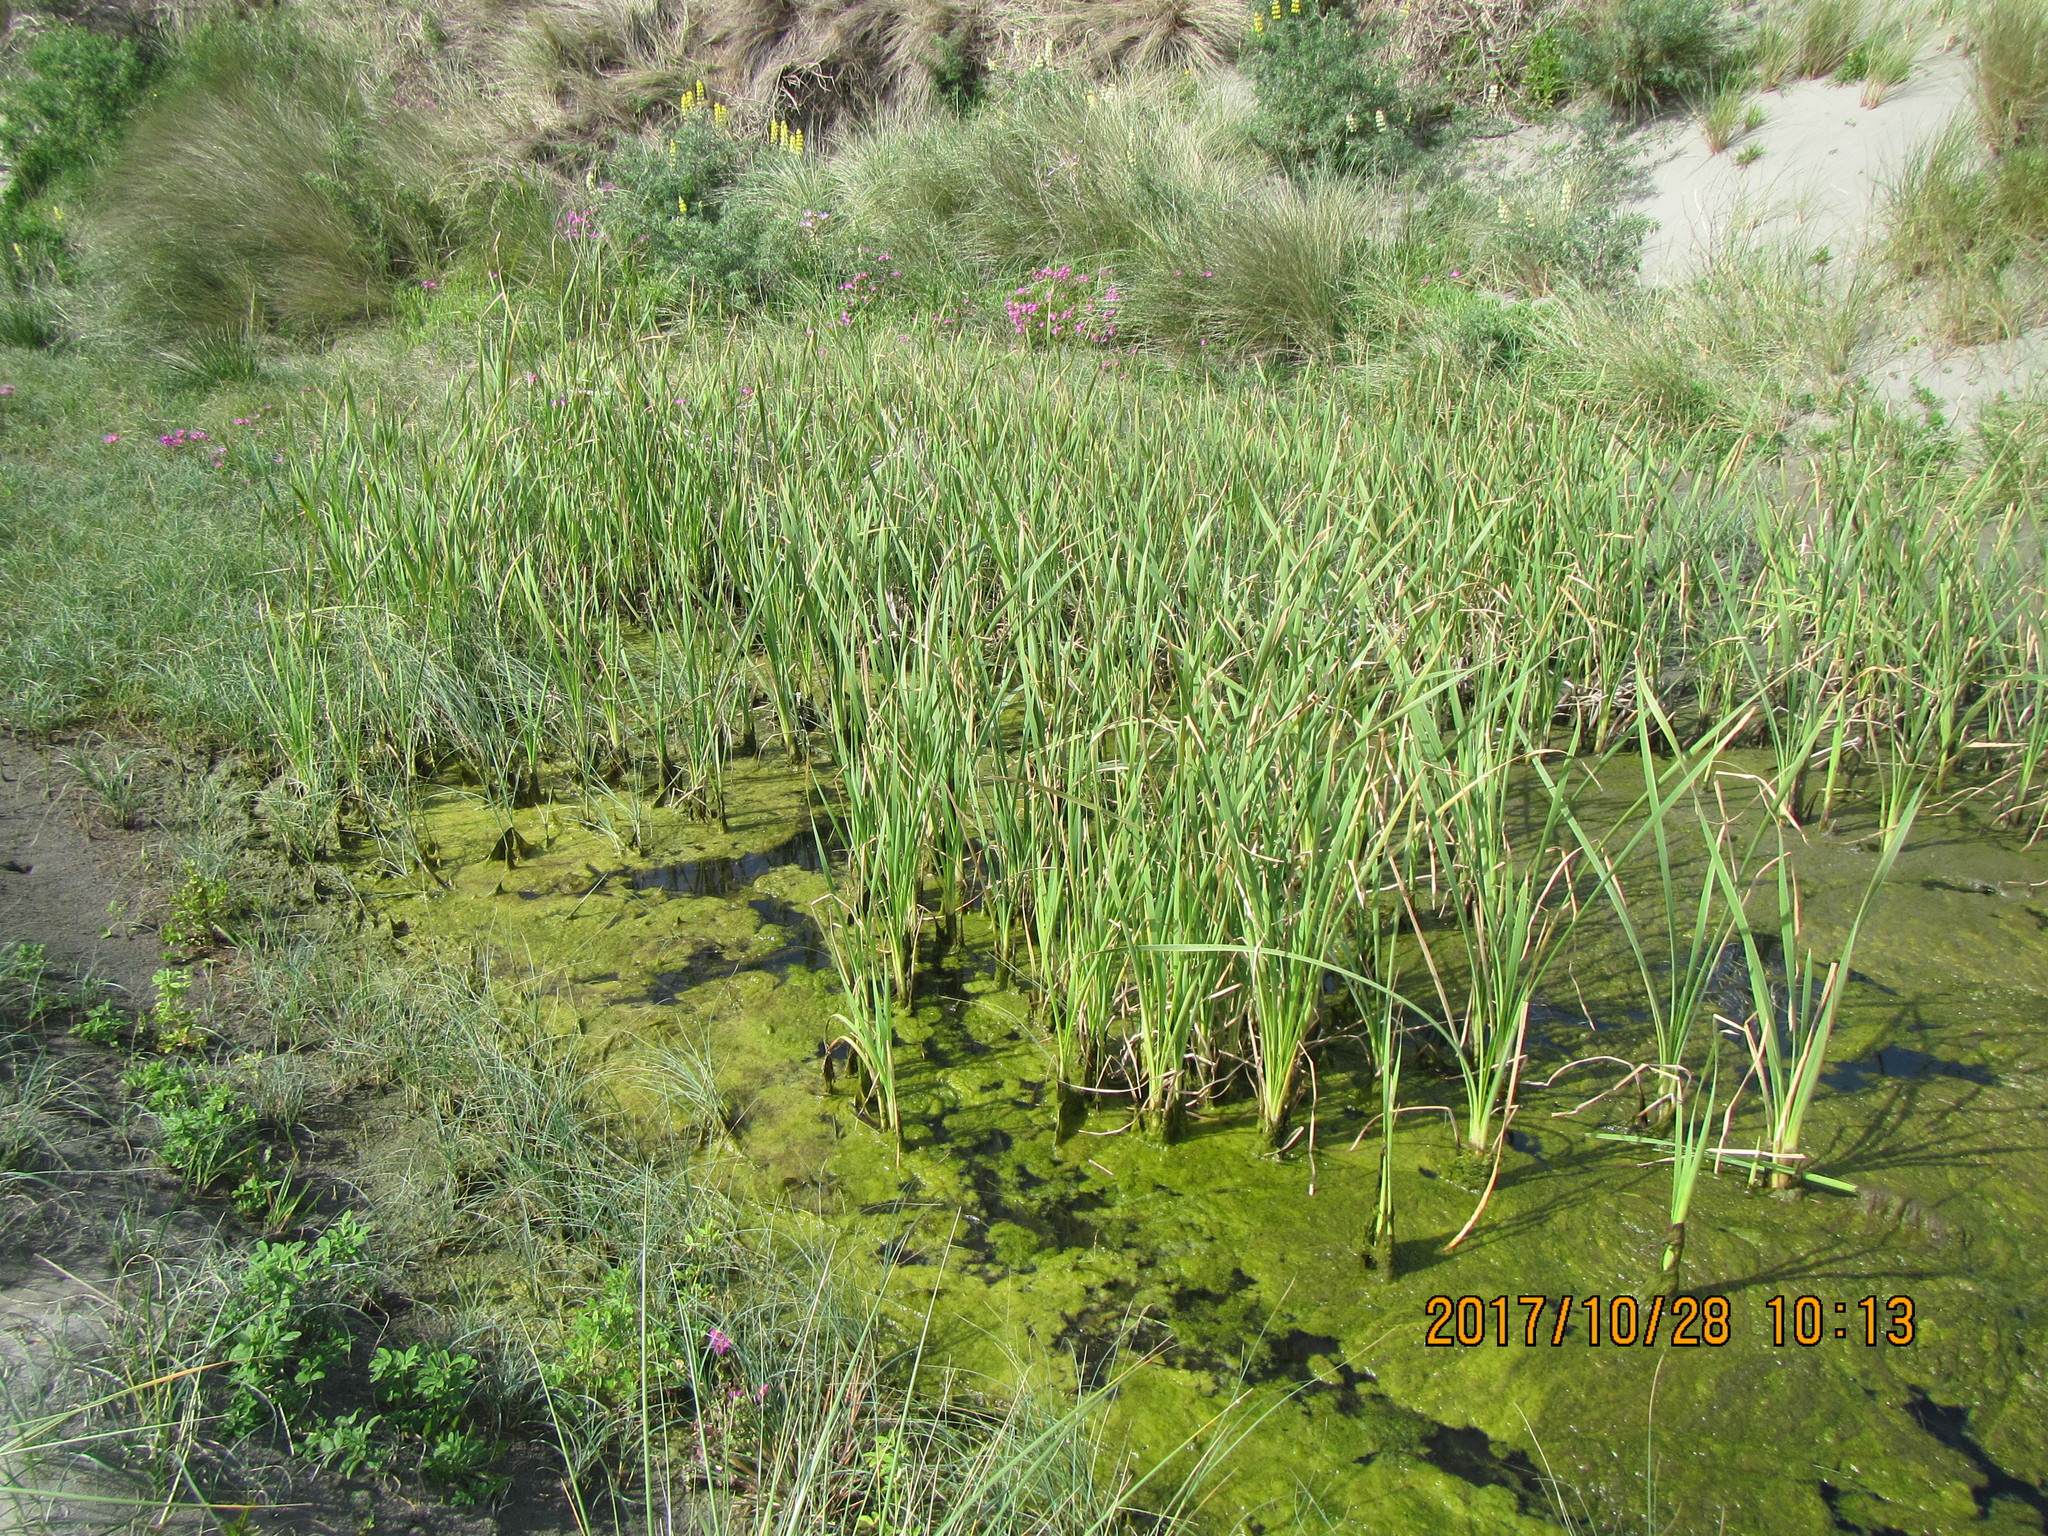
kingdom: Plantae
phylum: Tracheophyta
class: Liliopsida
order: Poales
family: Typhaceae
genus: Typha
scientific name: Typha orientalis
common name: Bullrush
